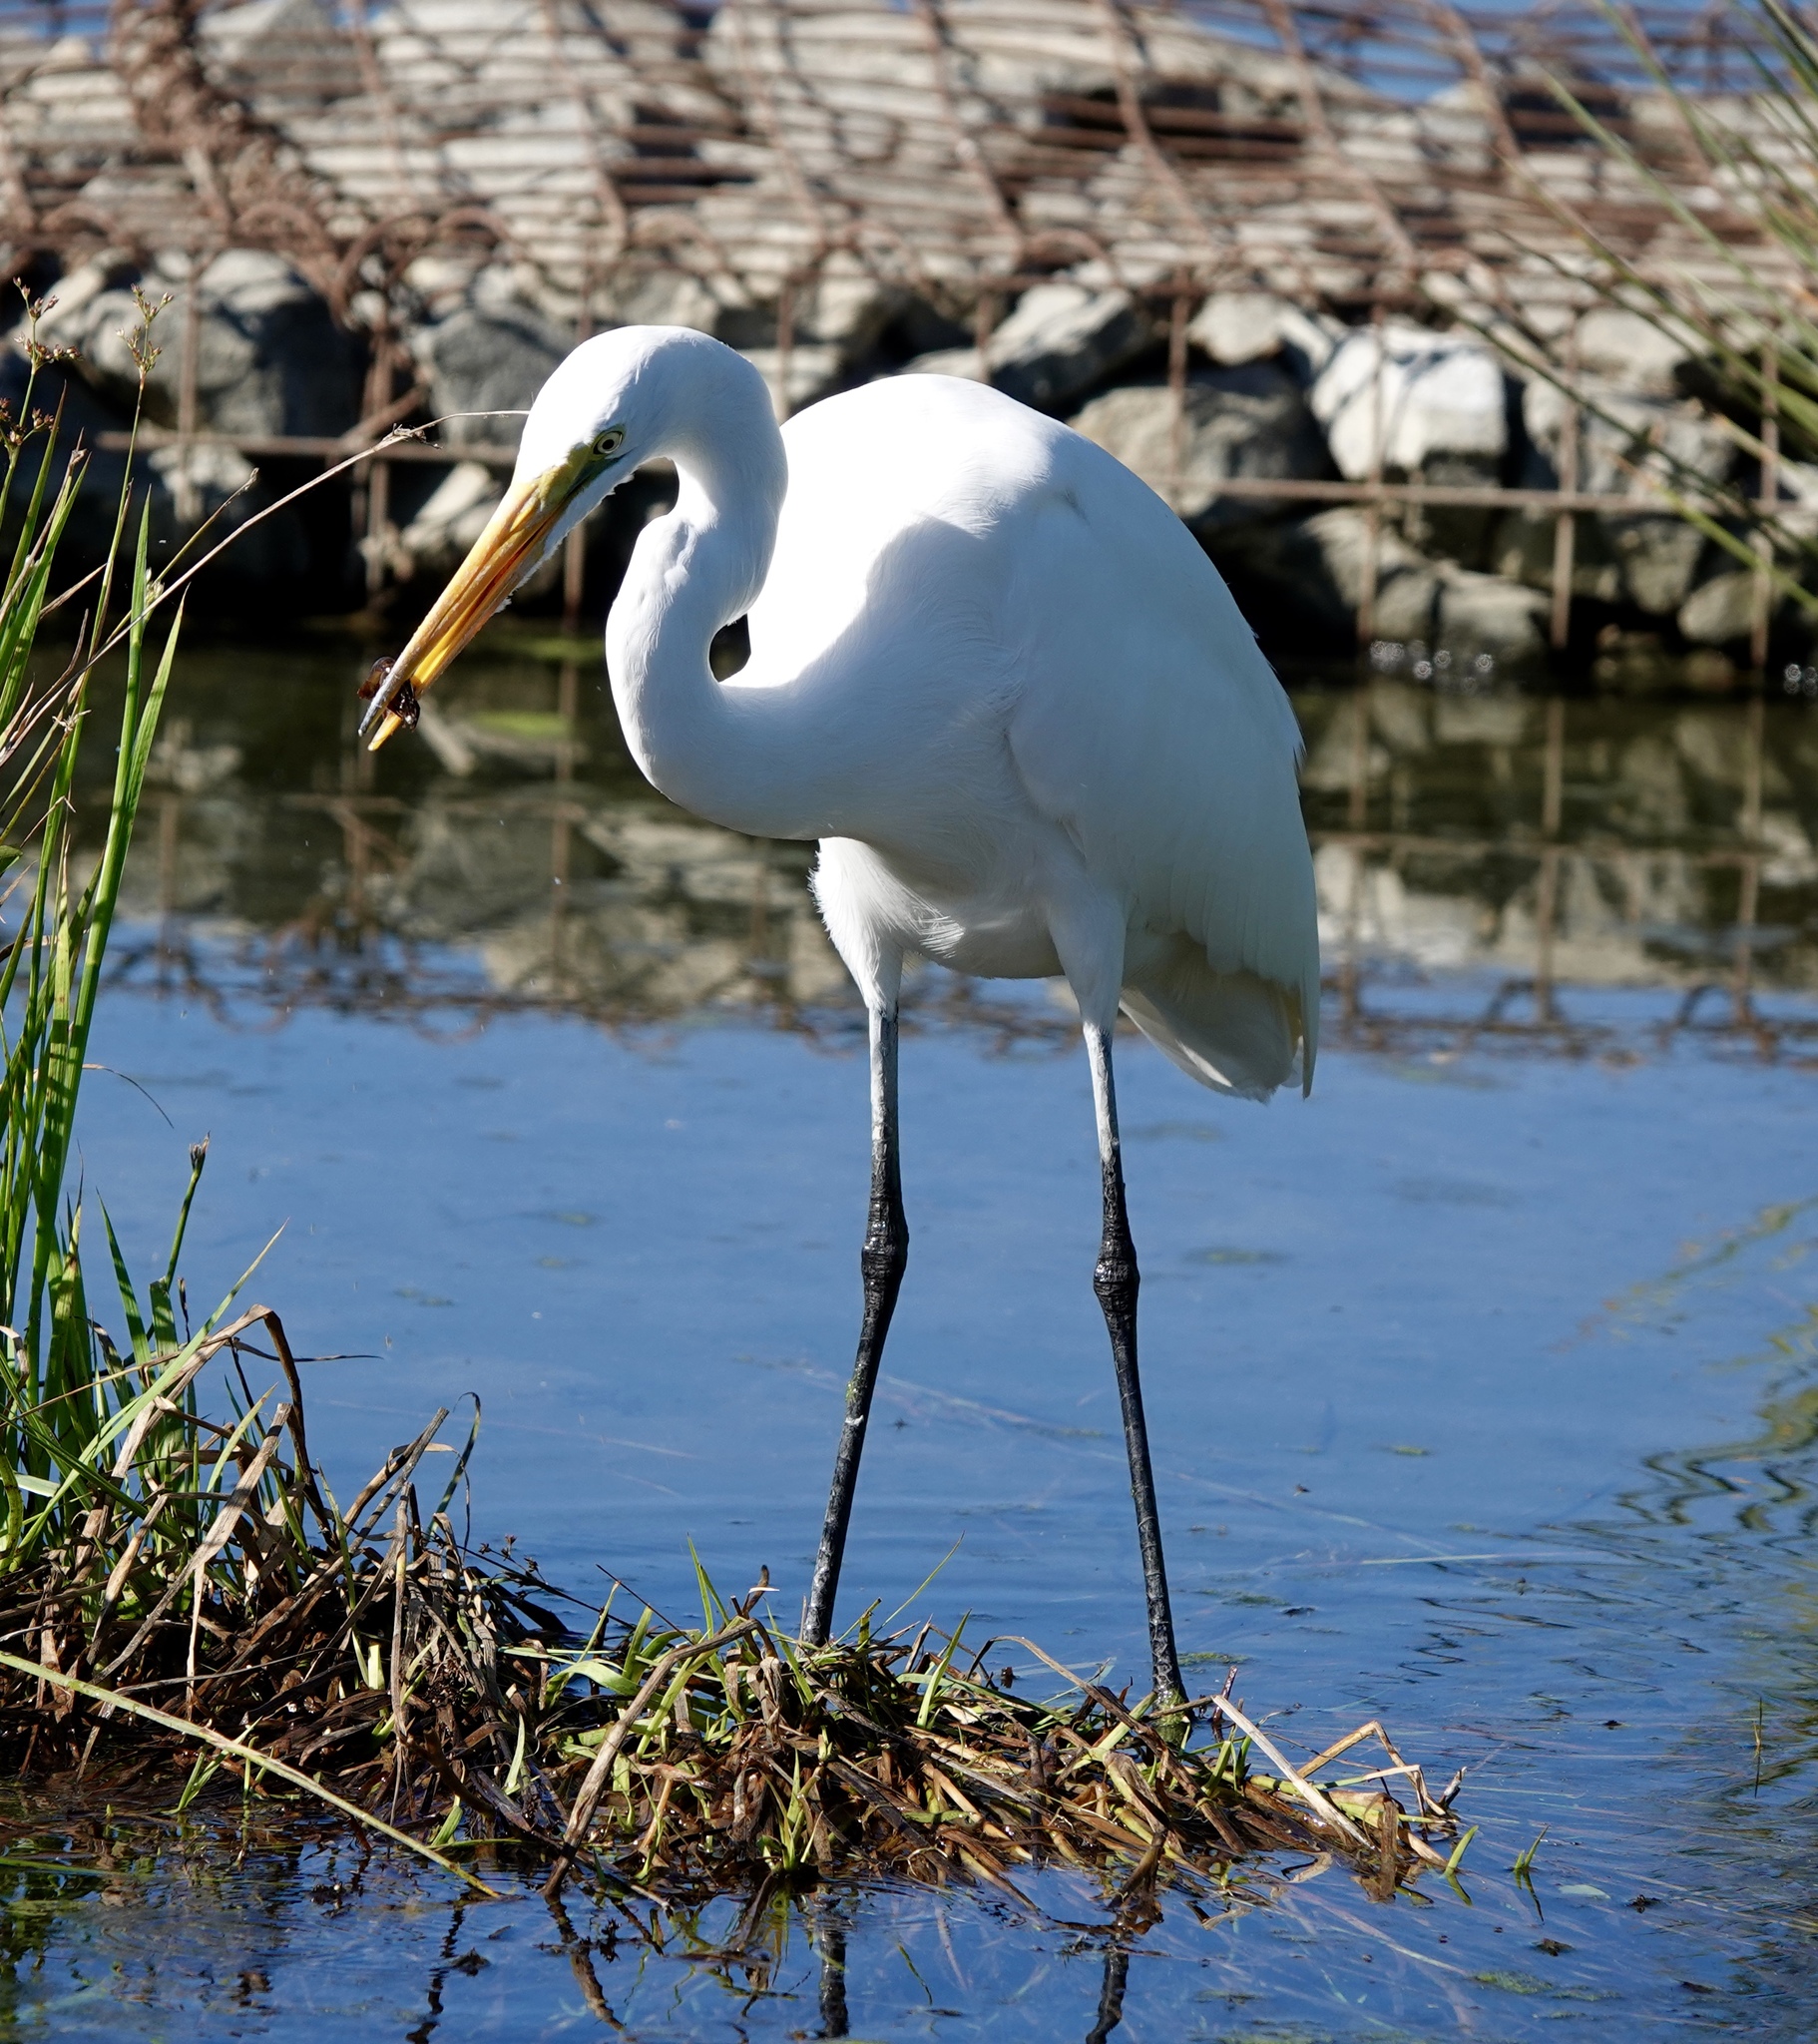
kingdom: Animalia
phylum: Chordata
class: Aves
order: Pelecaniformes
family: Ardeidae
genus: Ardea
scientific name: Ardea alba
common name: Great egret
